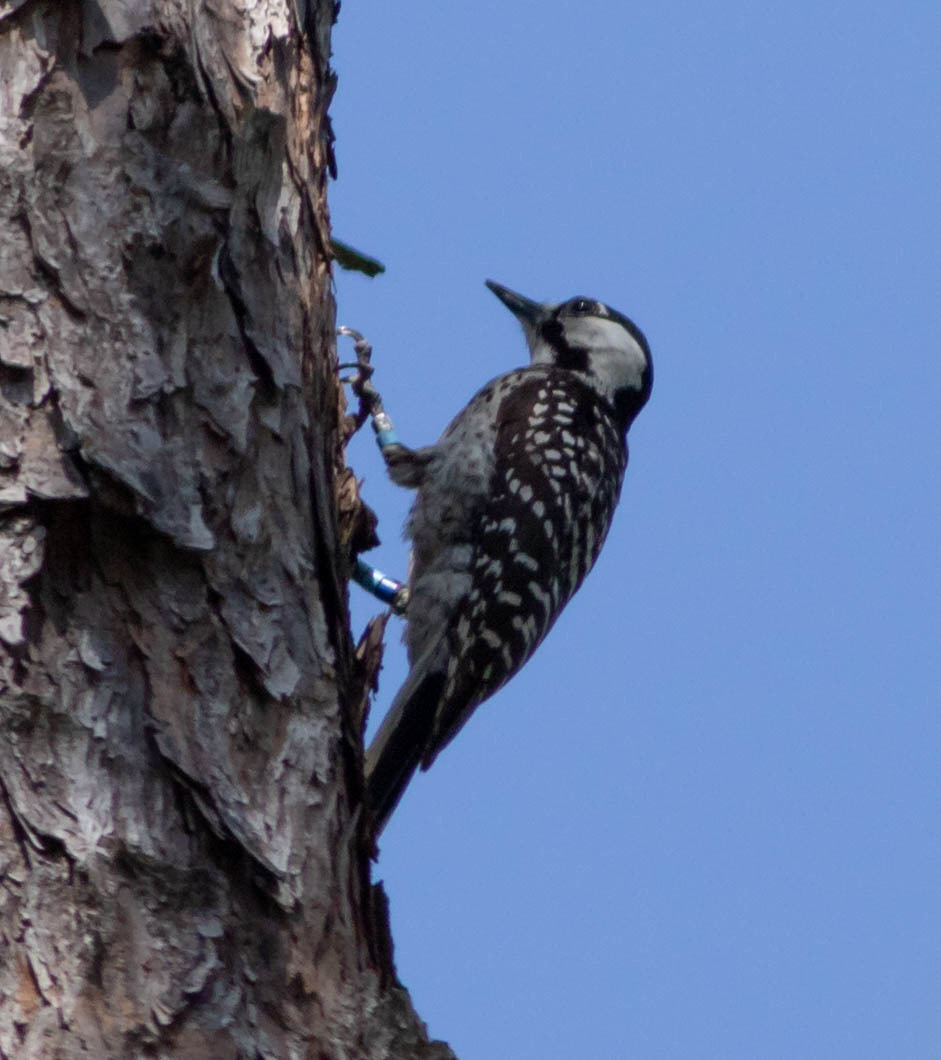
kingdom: Animalia
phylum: Chordata
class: Aves
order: Piciformes
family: Picidae
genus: Leuconotopicus
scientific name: Leuconotopicus borealis
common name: Red-cockaded woodpecker
